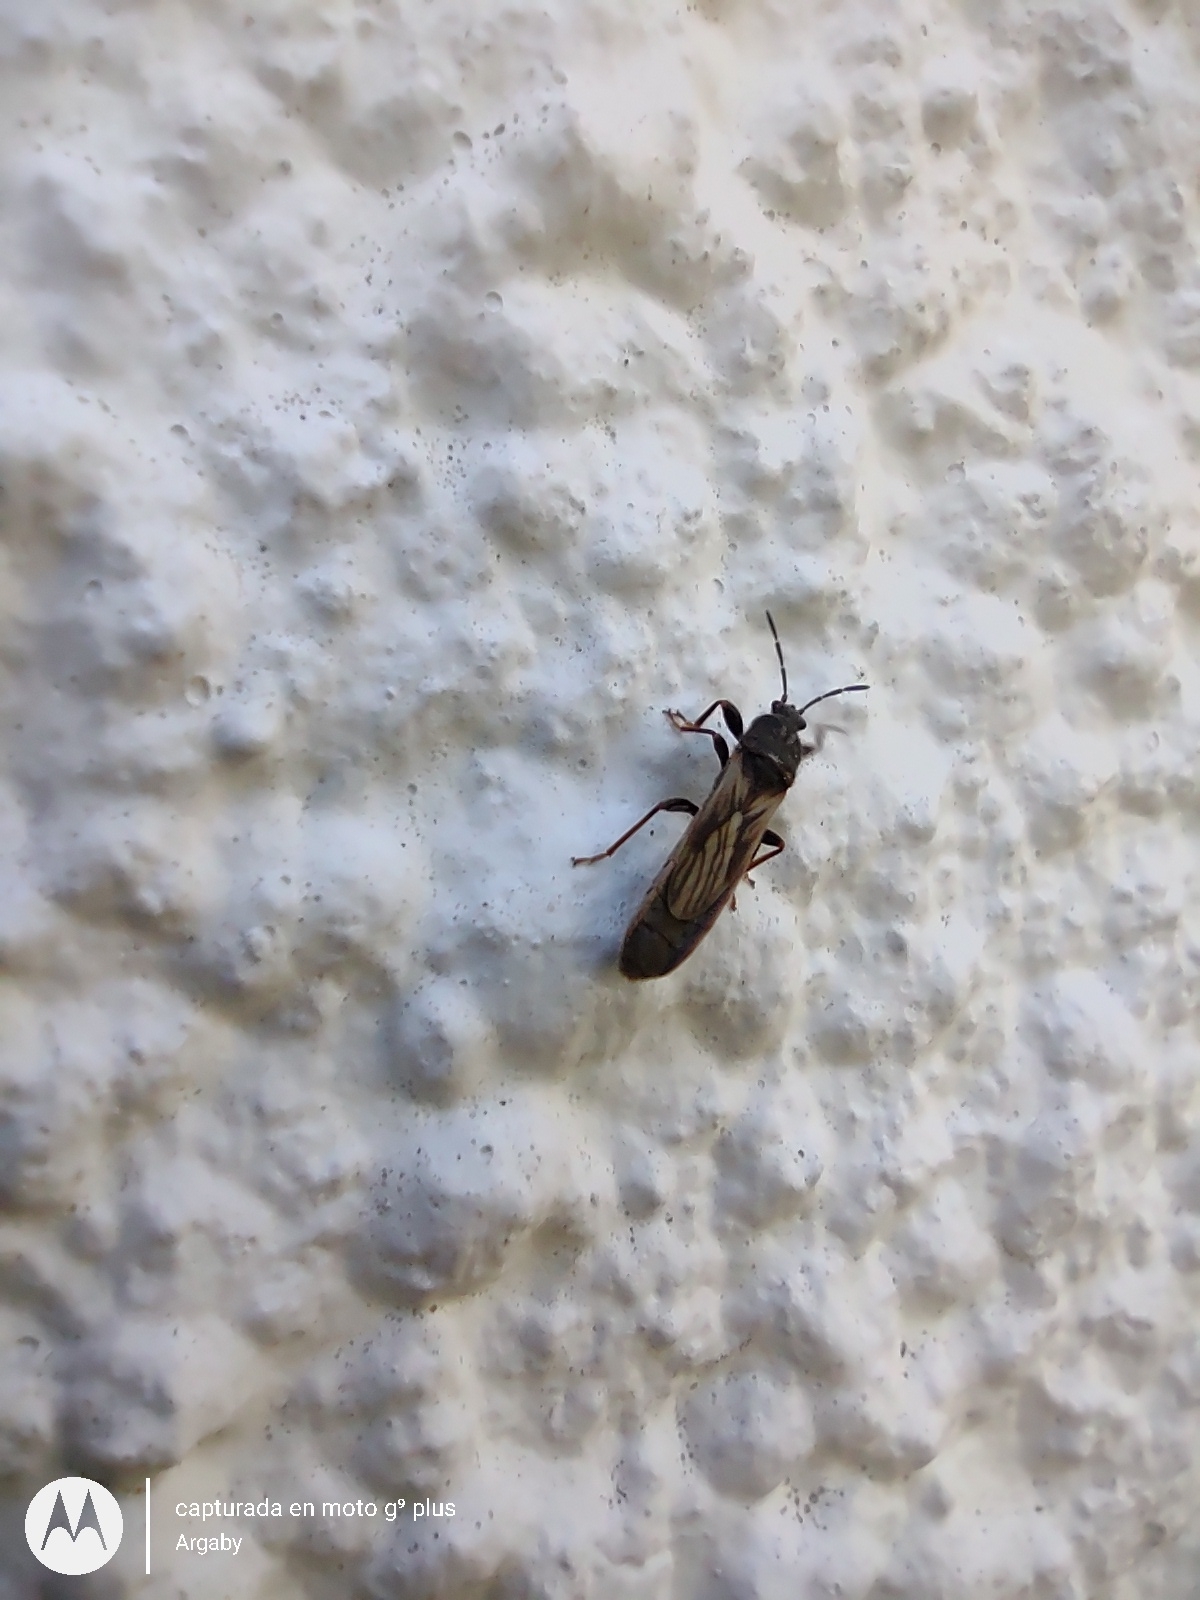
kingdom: Animalia
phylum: Arthropoda
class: Insecta
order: Hemiptera
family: Blissidae
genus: Ischnodemus
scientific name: Ischnodemus bosqi
